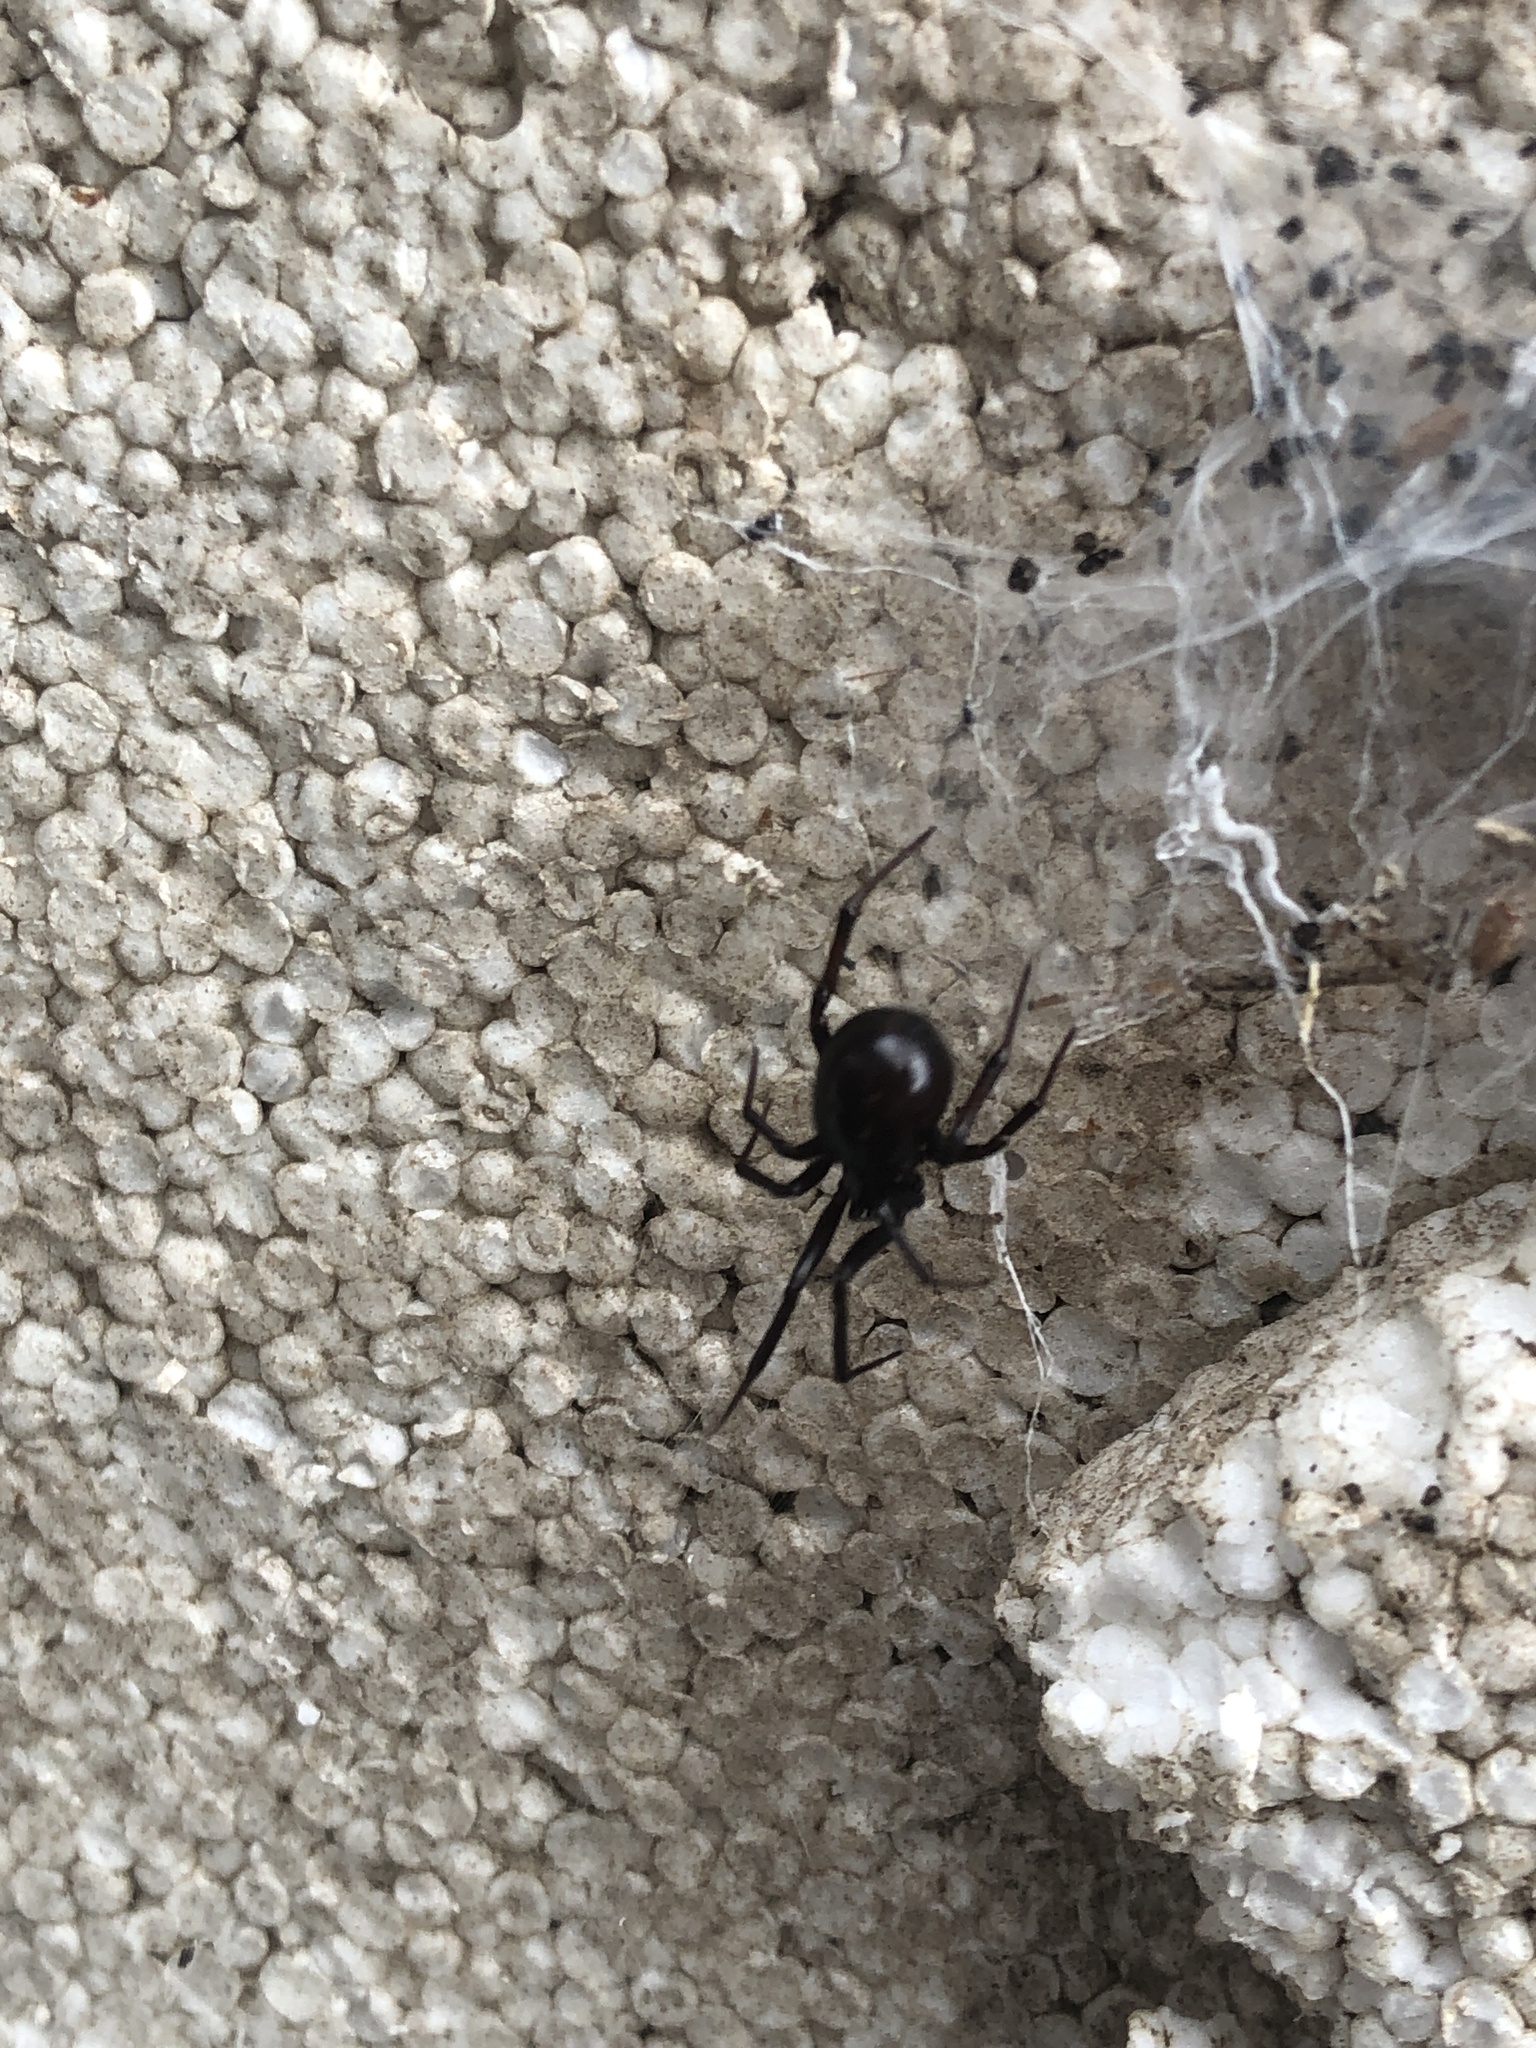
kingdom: Animalia
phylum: Arthropoda
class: Arachnida
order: Araneae
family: Theridiidae
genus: Steatoda
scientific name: Steatoda capensis
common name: Cobweb weaver
